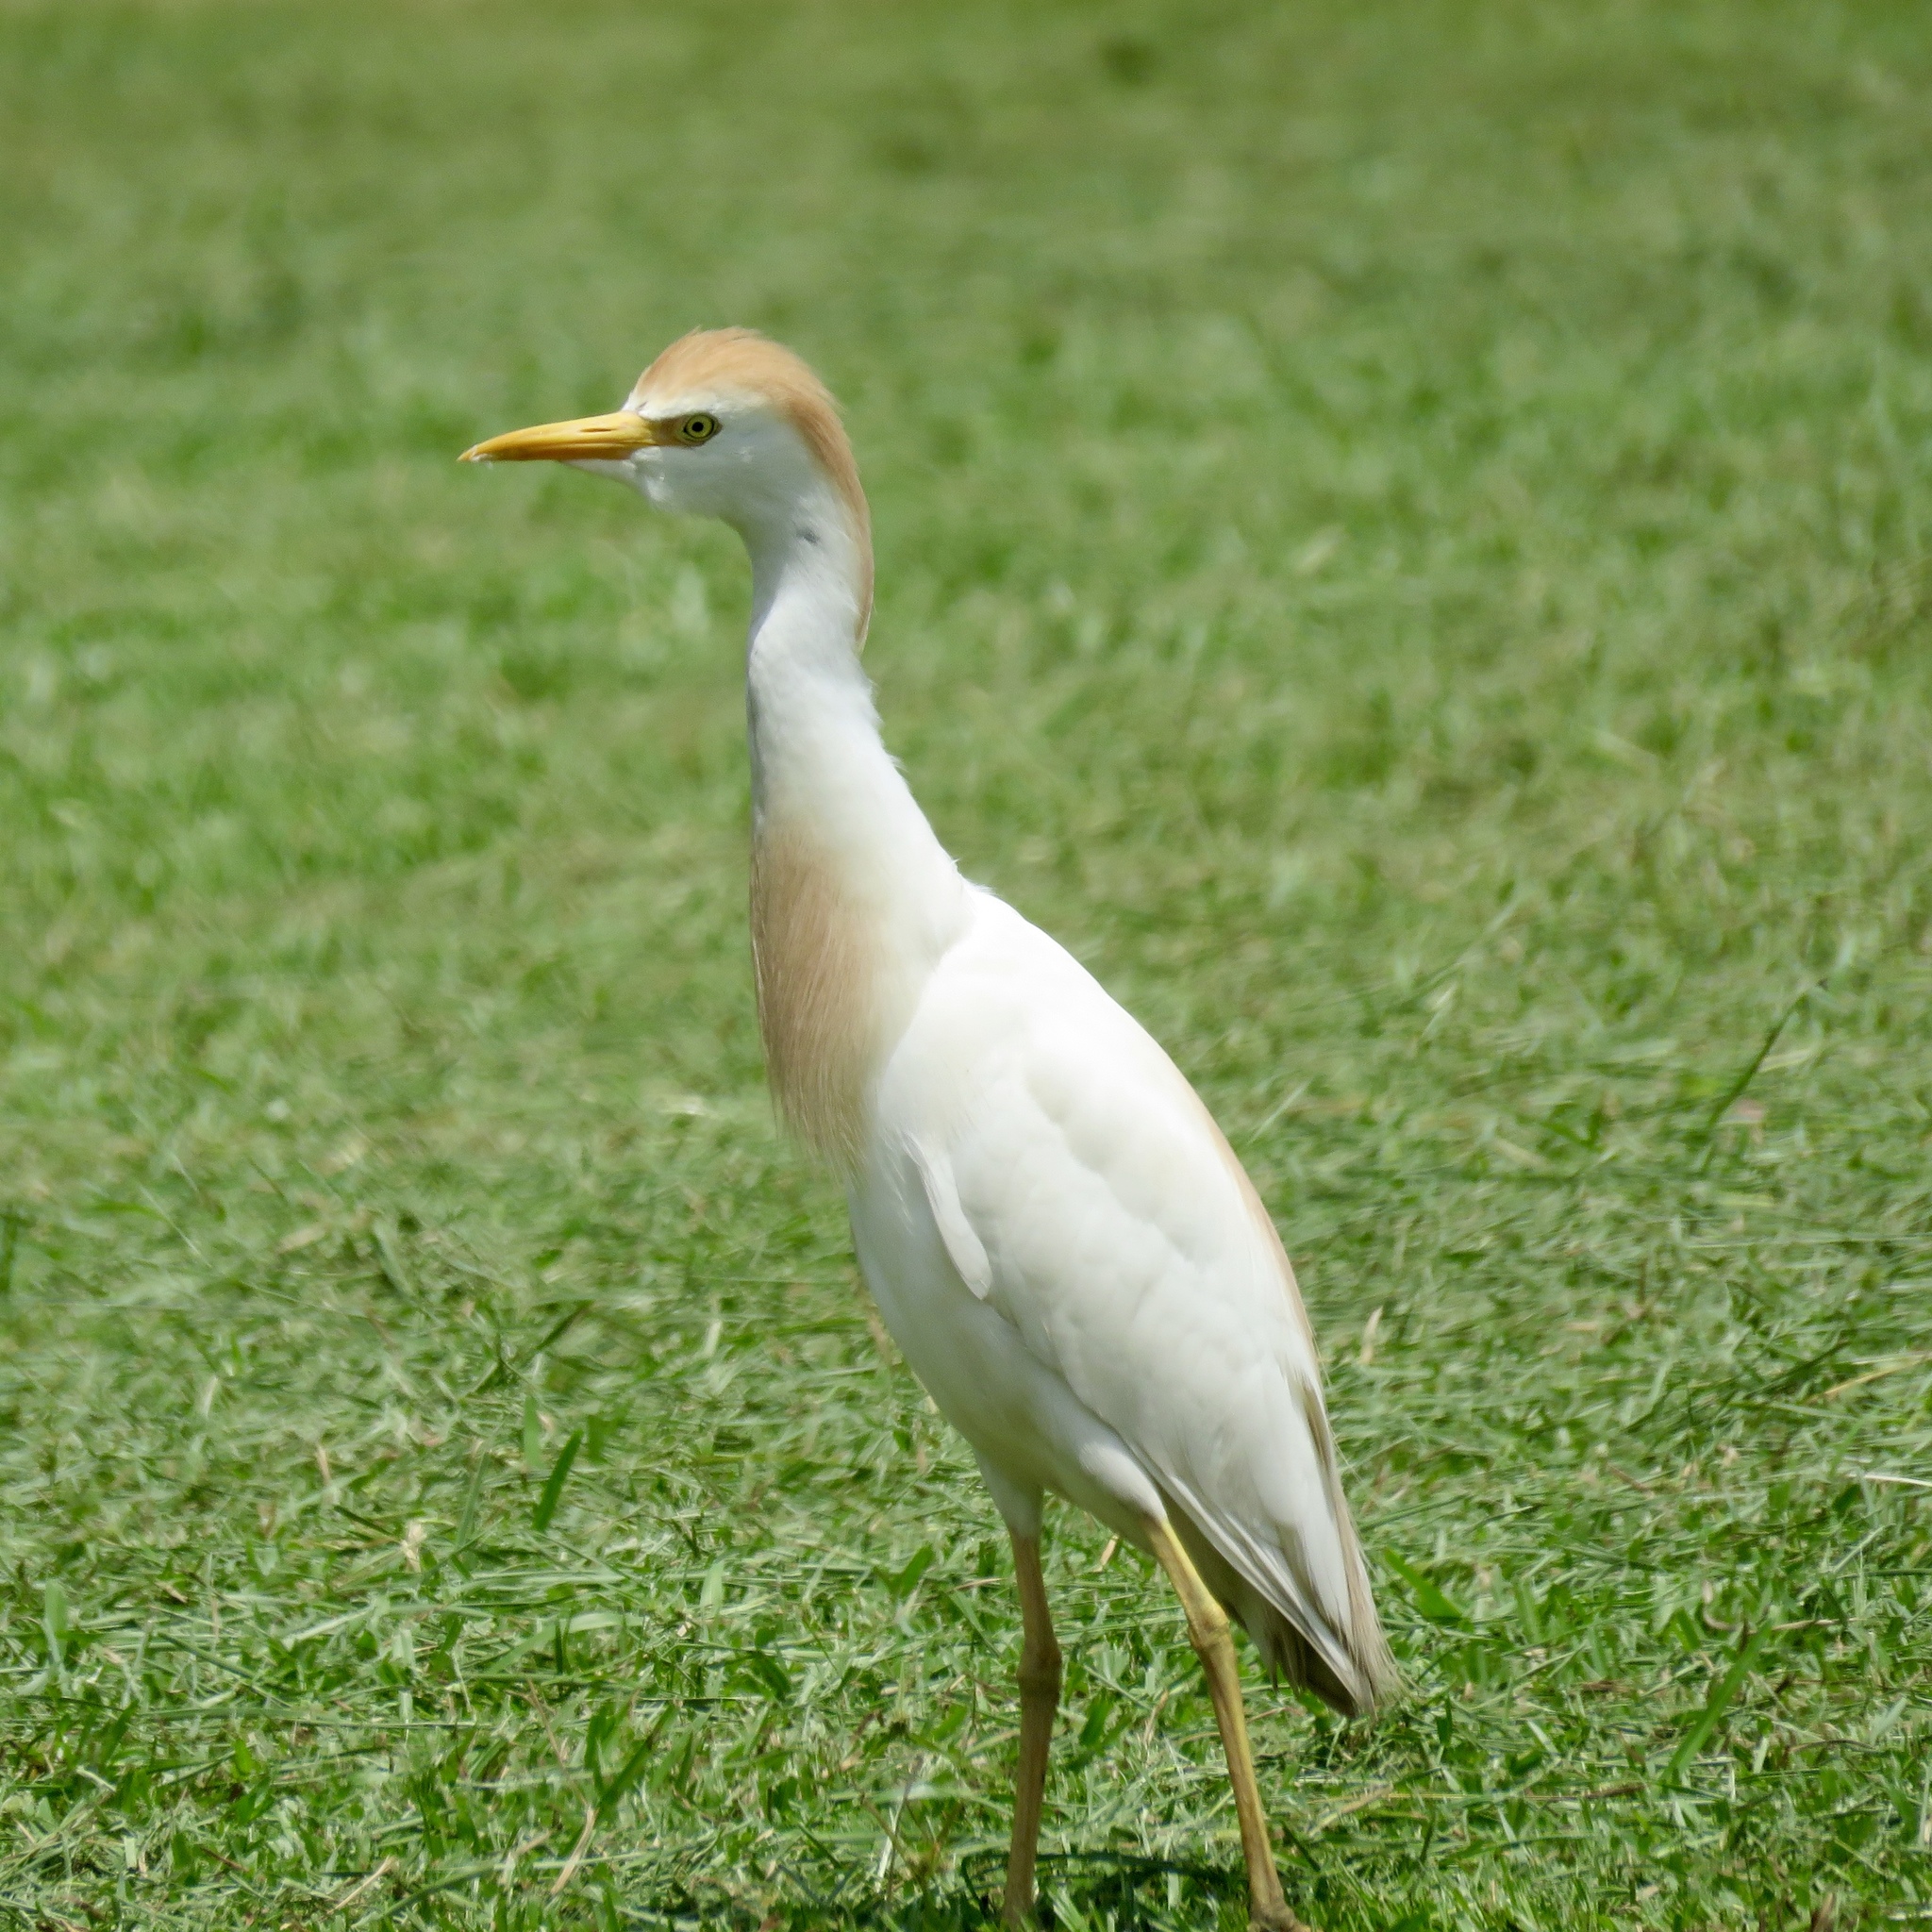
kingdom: Animalia
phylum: Chordata
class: Aves
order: Pelecaniformes
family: Ardeidae
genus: Bubulcus
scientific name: Bubulcus ibis
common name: Cattle egret
